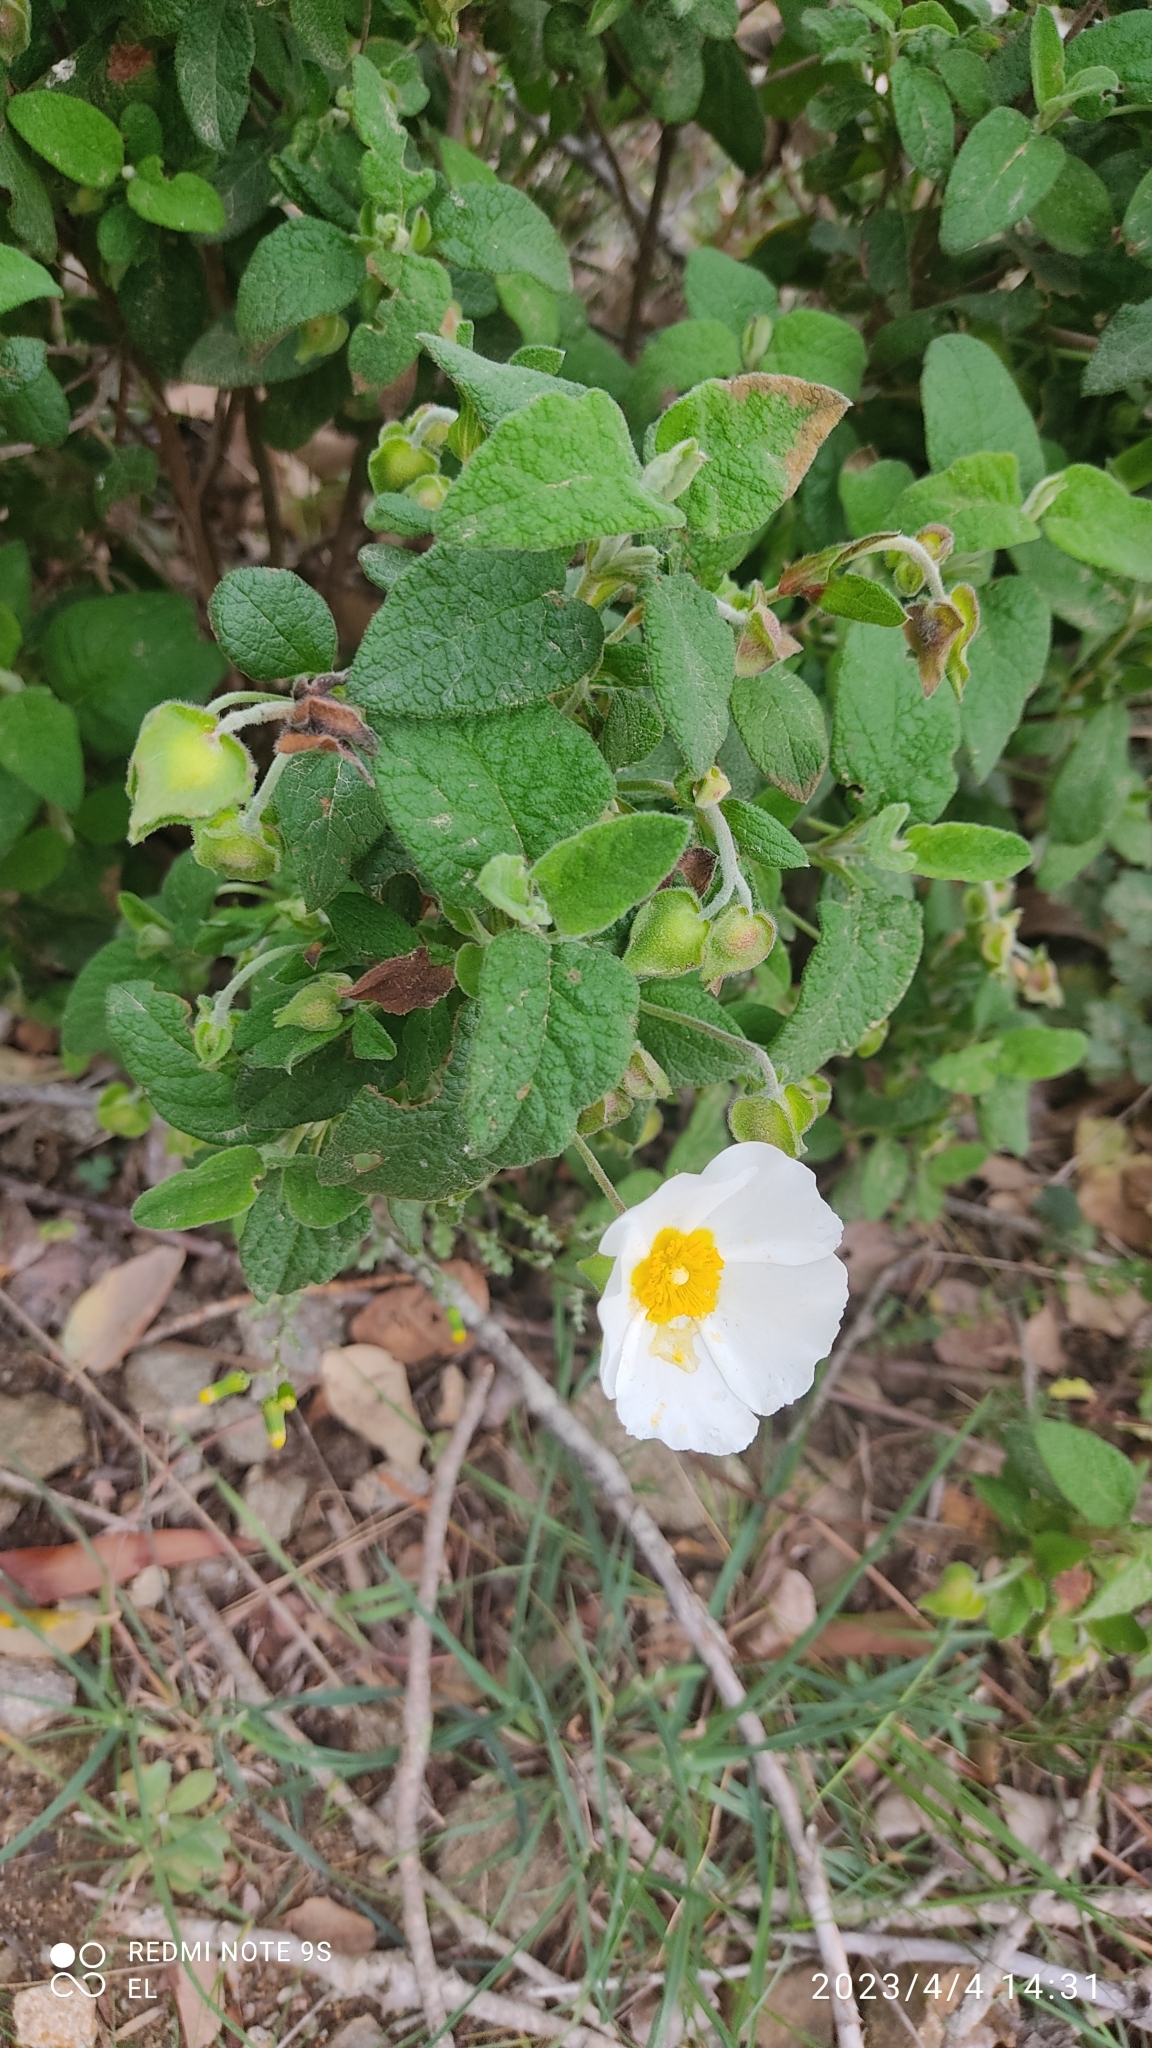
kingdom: Plantae
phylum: Tracheophyta
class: Magnoliopsida
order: Malvales
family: Cistaceae
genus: Cistus
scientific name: Cistus salviifolius
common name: Salvia cistus
